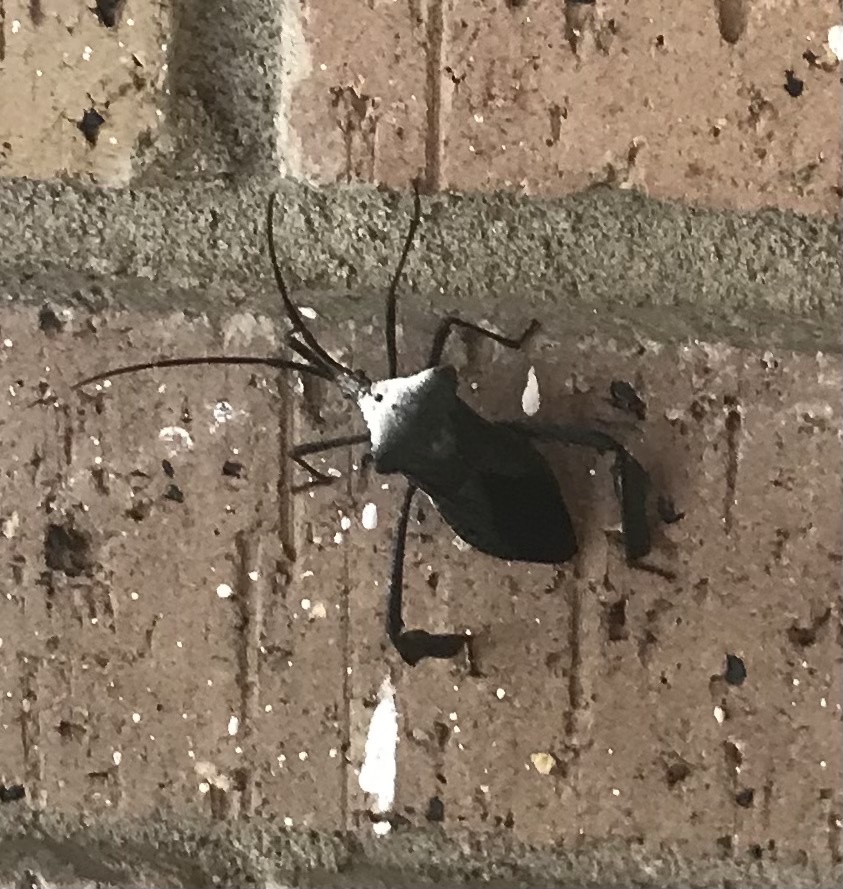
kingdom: Animalia
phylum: Arthropoda
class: Insecta
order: Hemiptera
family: Coreidae
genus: Acanthocephala
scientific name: Acanthocephala declivis
